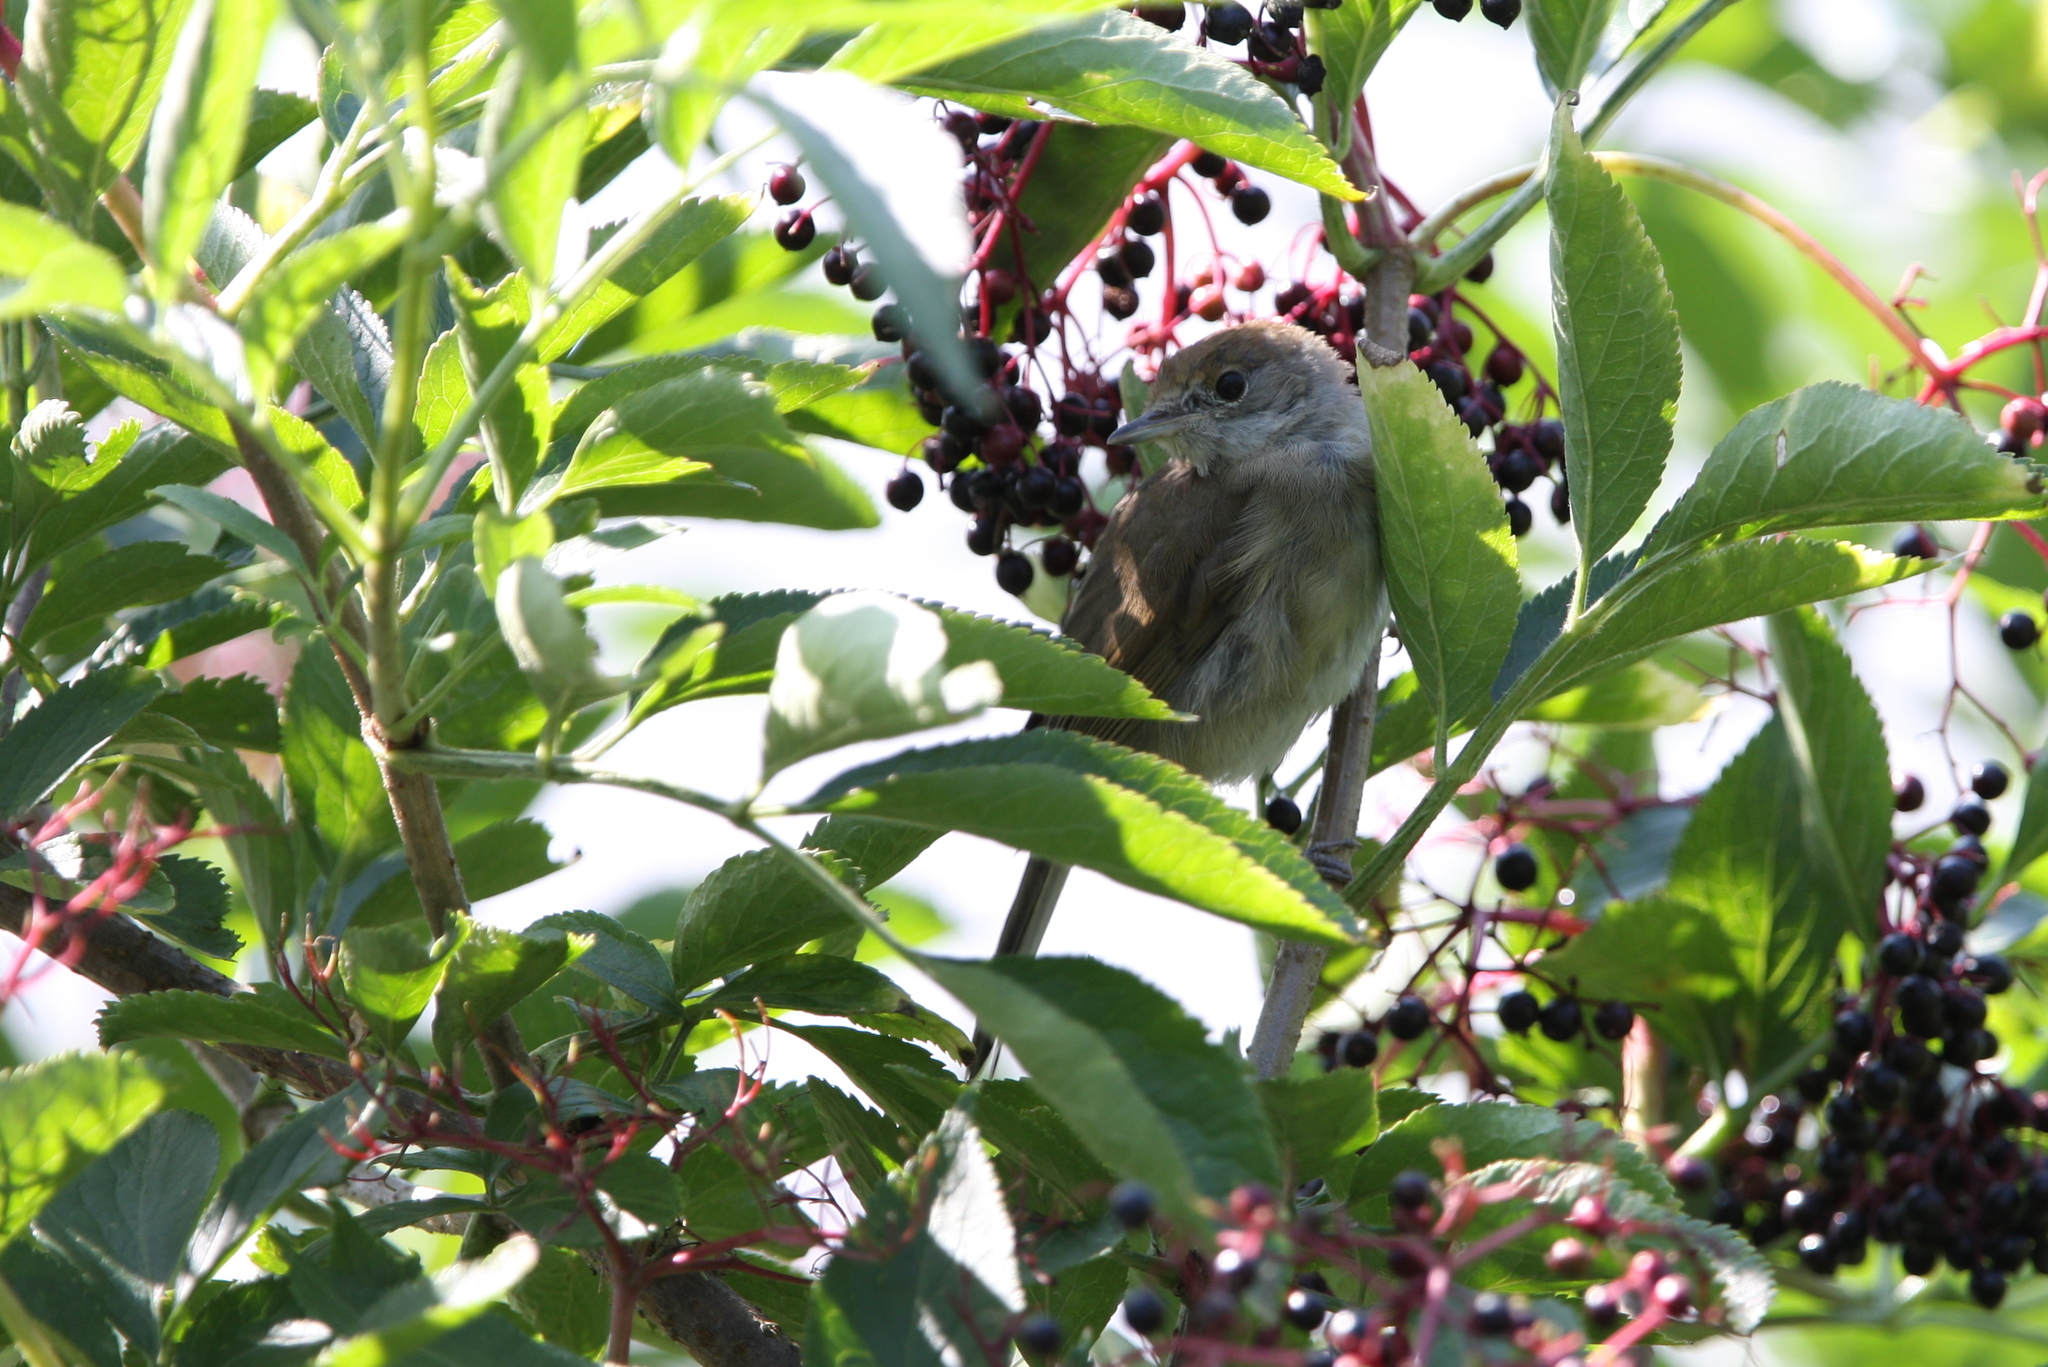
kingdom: Animalia
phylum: Chordata
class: Aves
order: Passeriformes
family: Sylviidae
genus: Sylvia
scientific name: Sylvia atricapilla
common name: Eurasian blackcap
